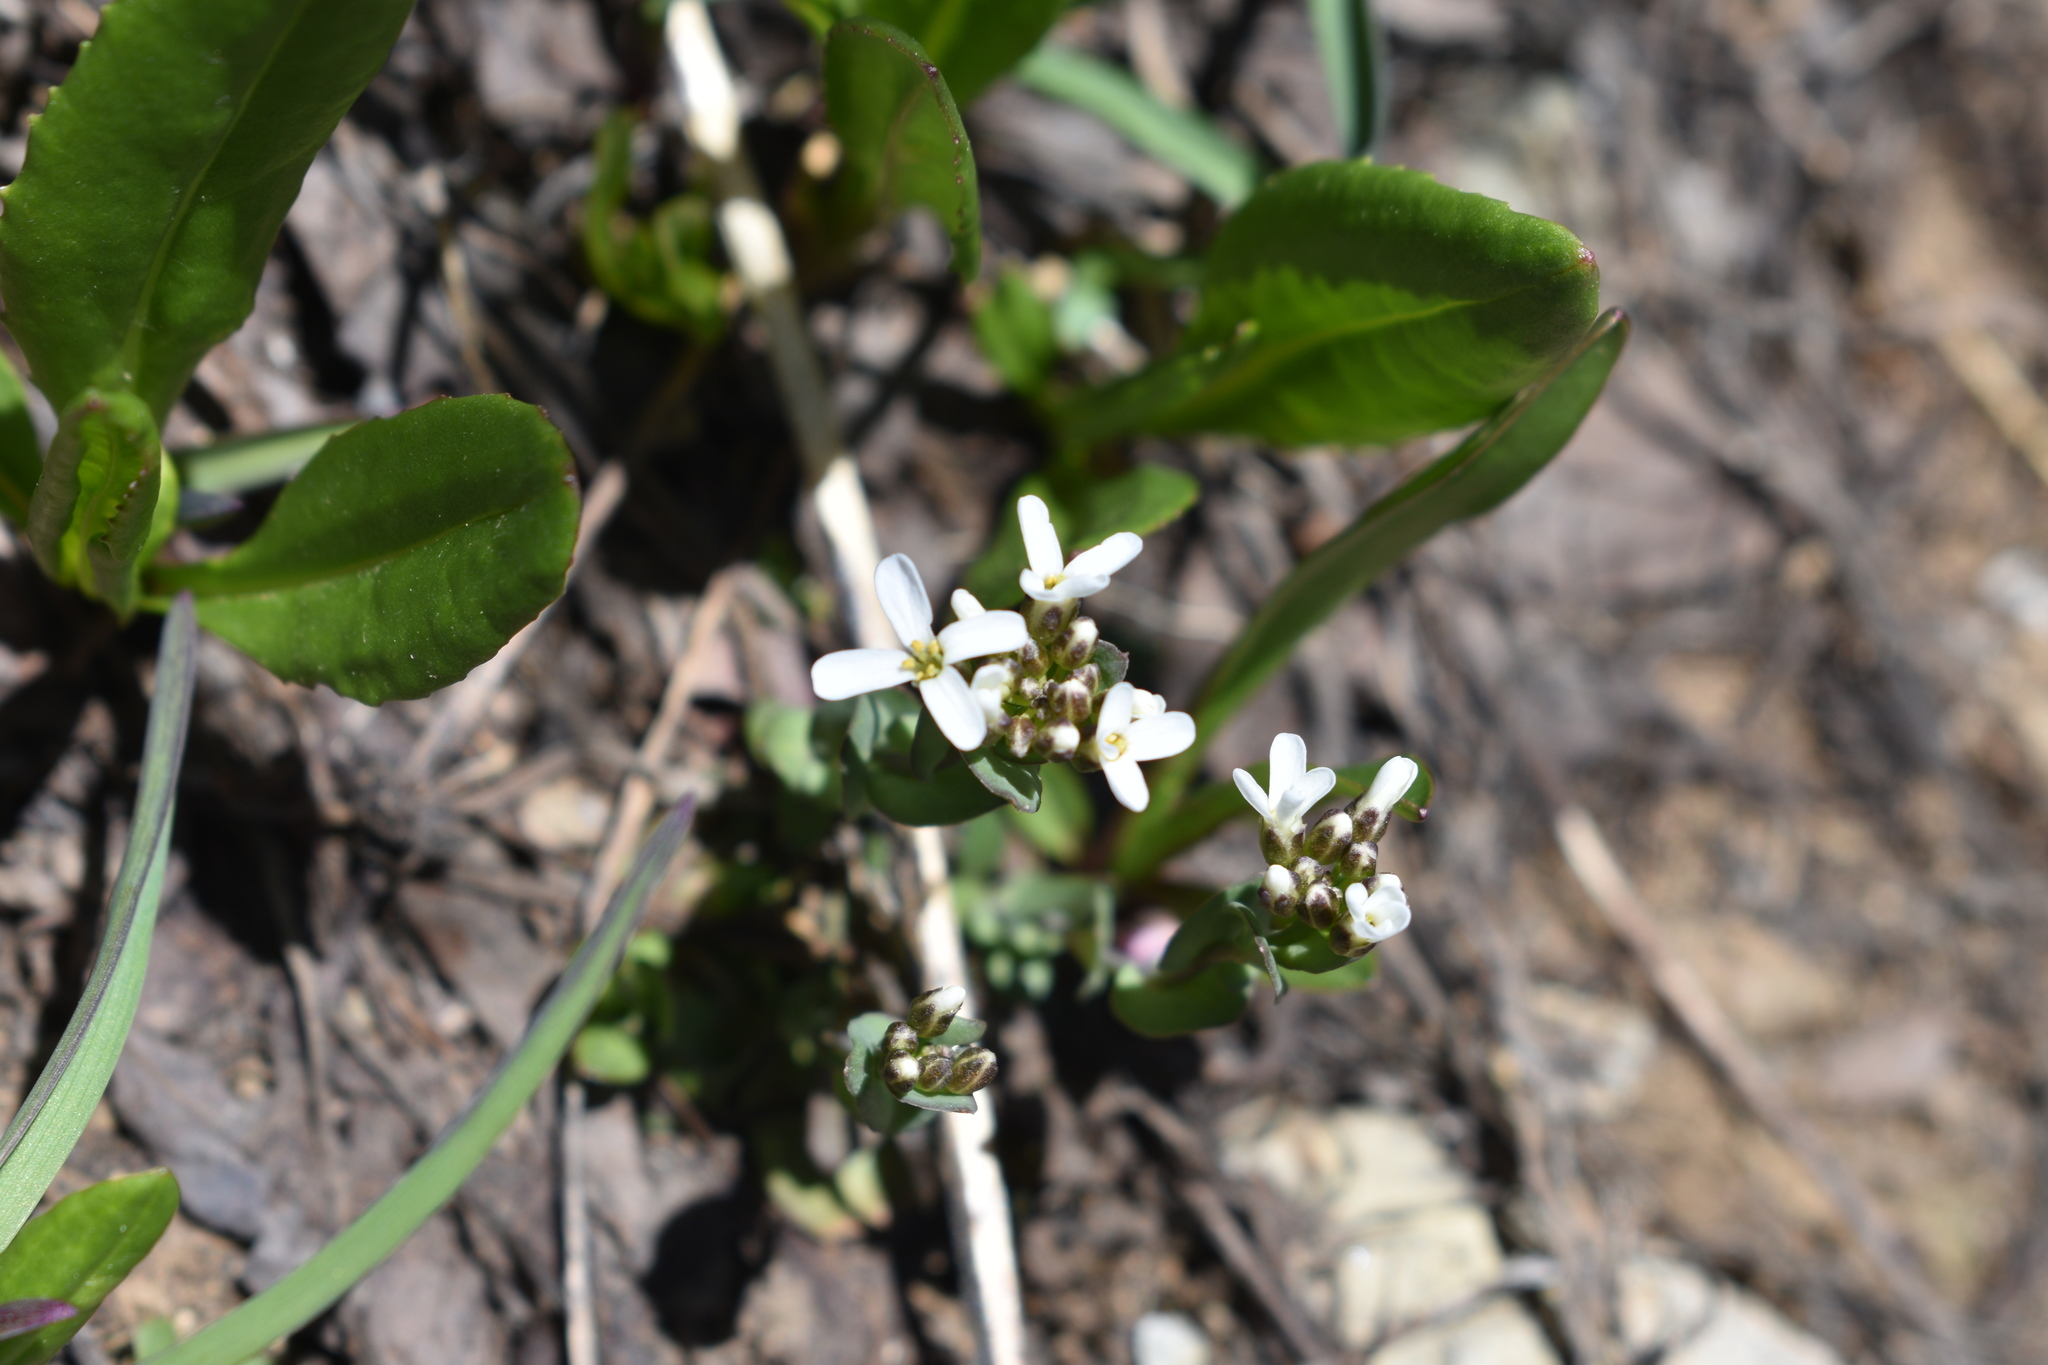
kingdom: Plantae
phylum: Tracheophyta
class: Magnoliopsida
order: Brassicales
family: Brassicaceae
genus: Noccaea
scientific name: Noccaea fendleri
